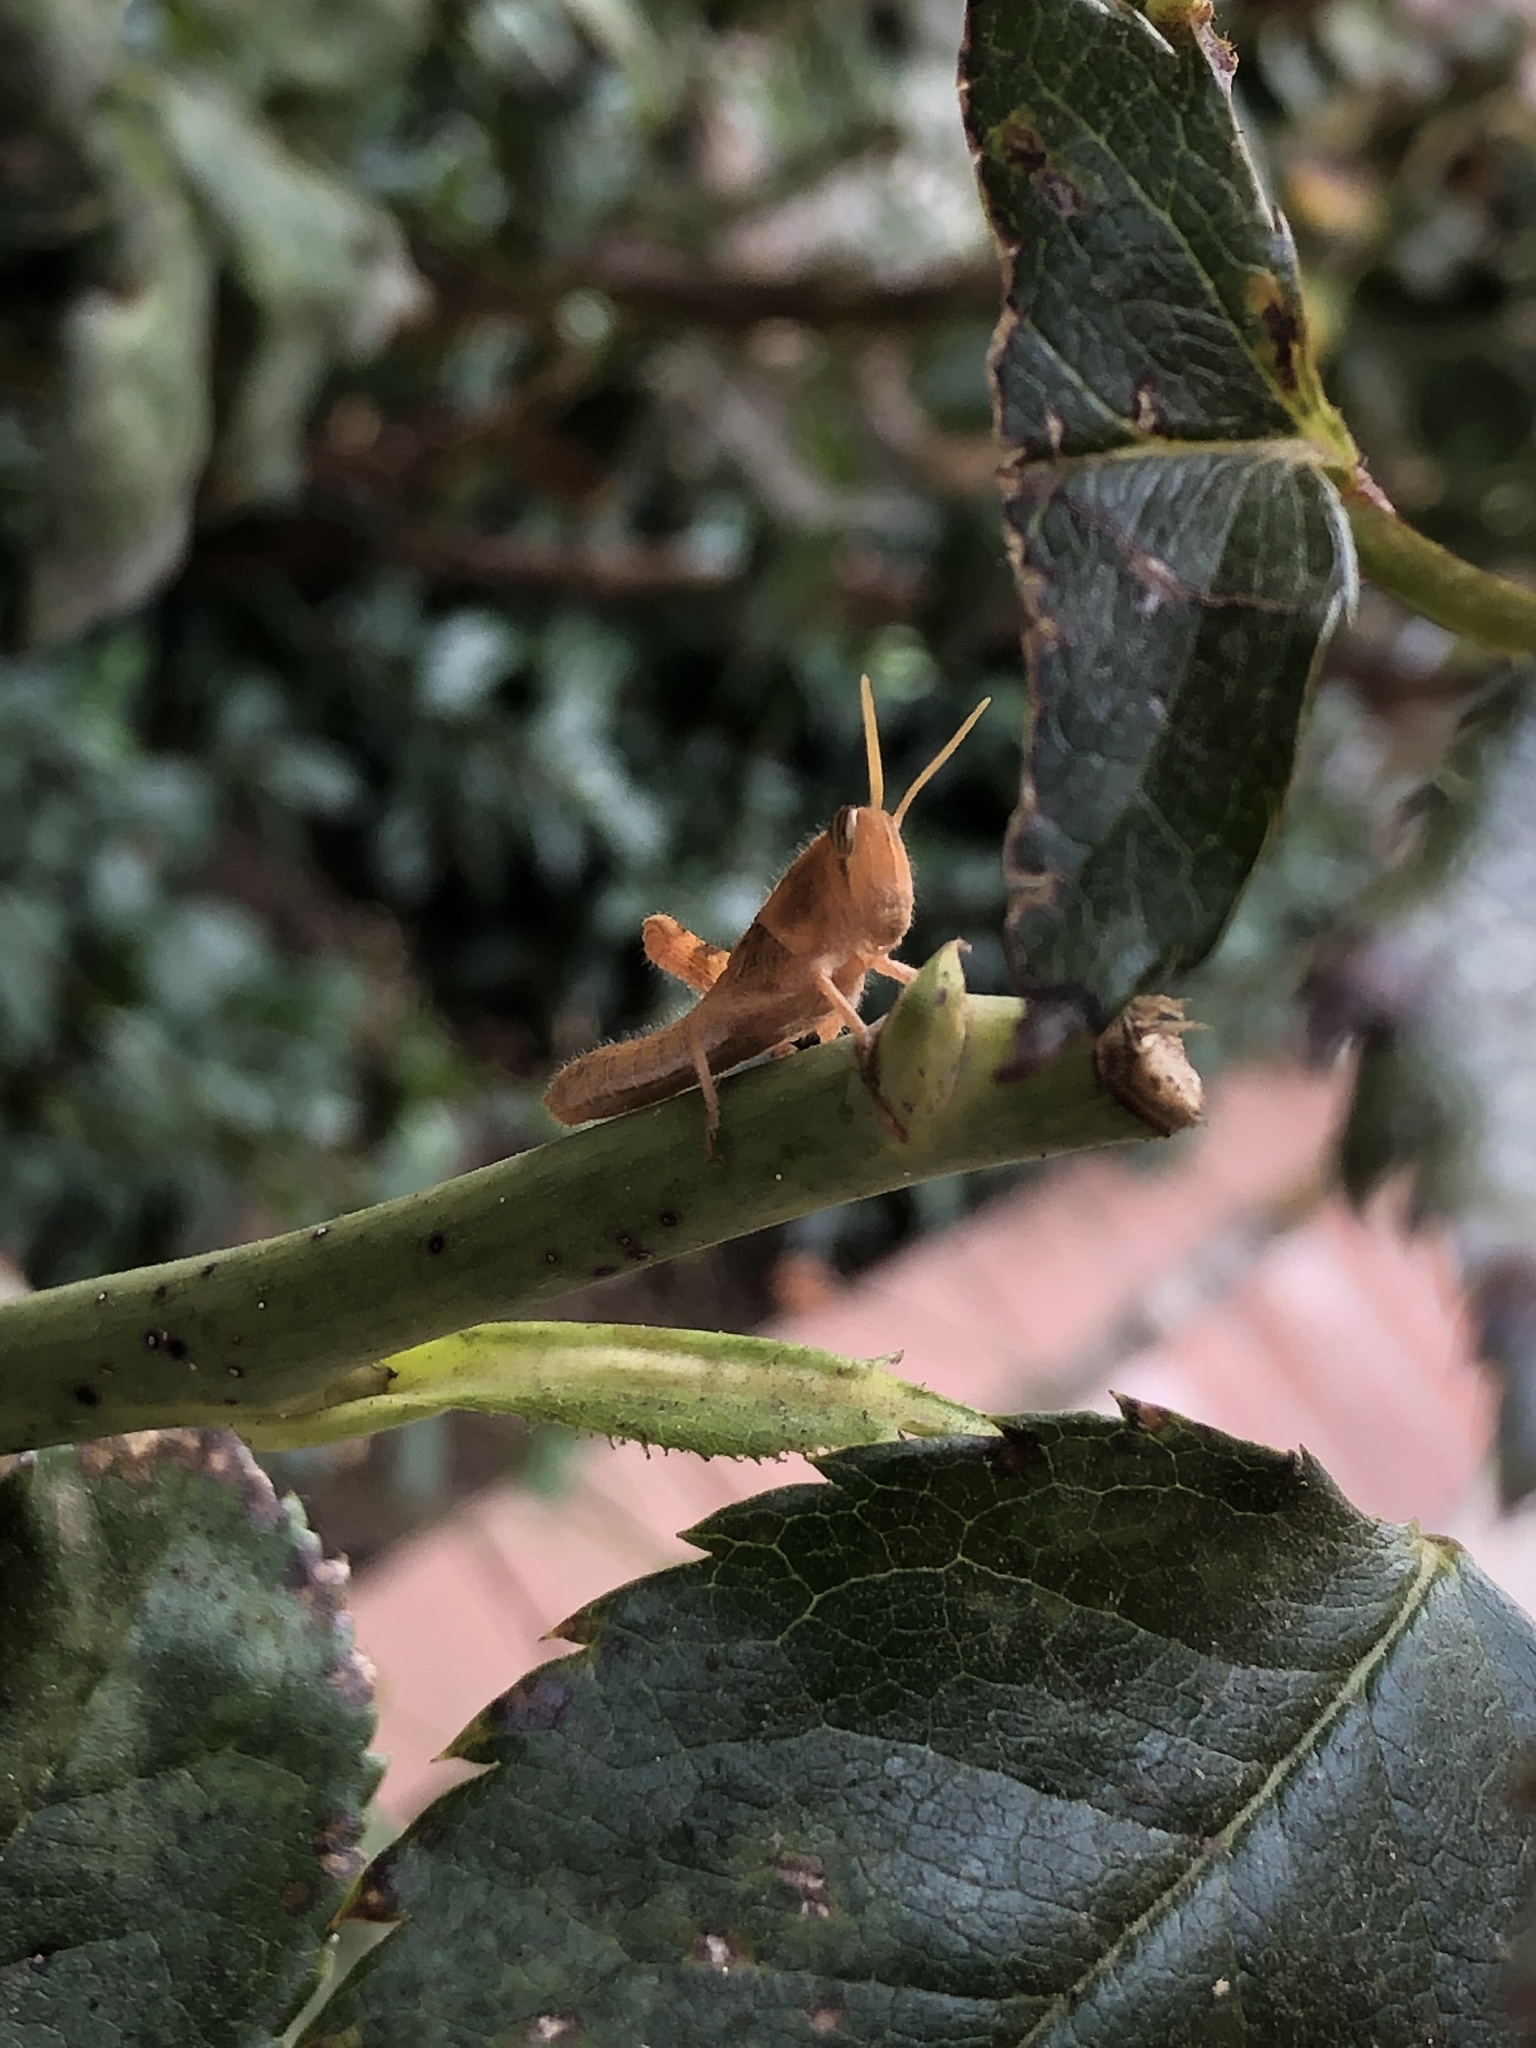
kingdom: Animalia
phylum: Arthropoda
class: Insecta
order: Orthoptera
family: Acrididae
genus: Schistocerca
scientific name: Schistocerca nitens
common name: Vagrant grasshopper
